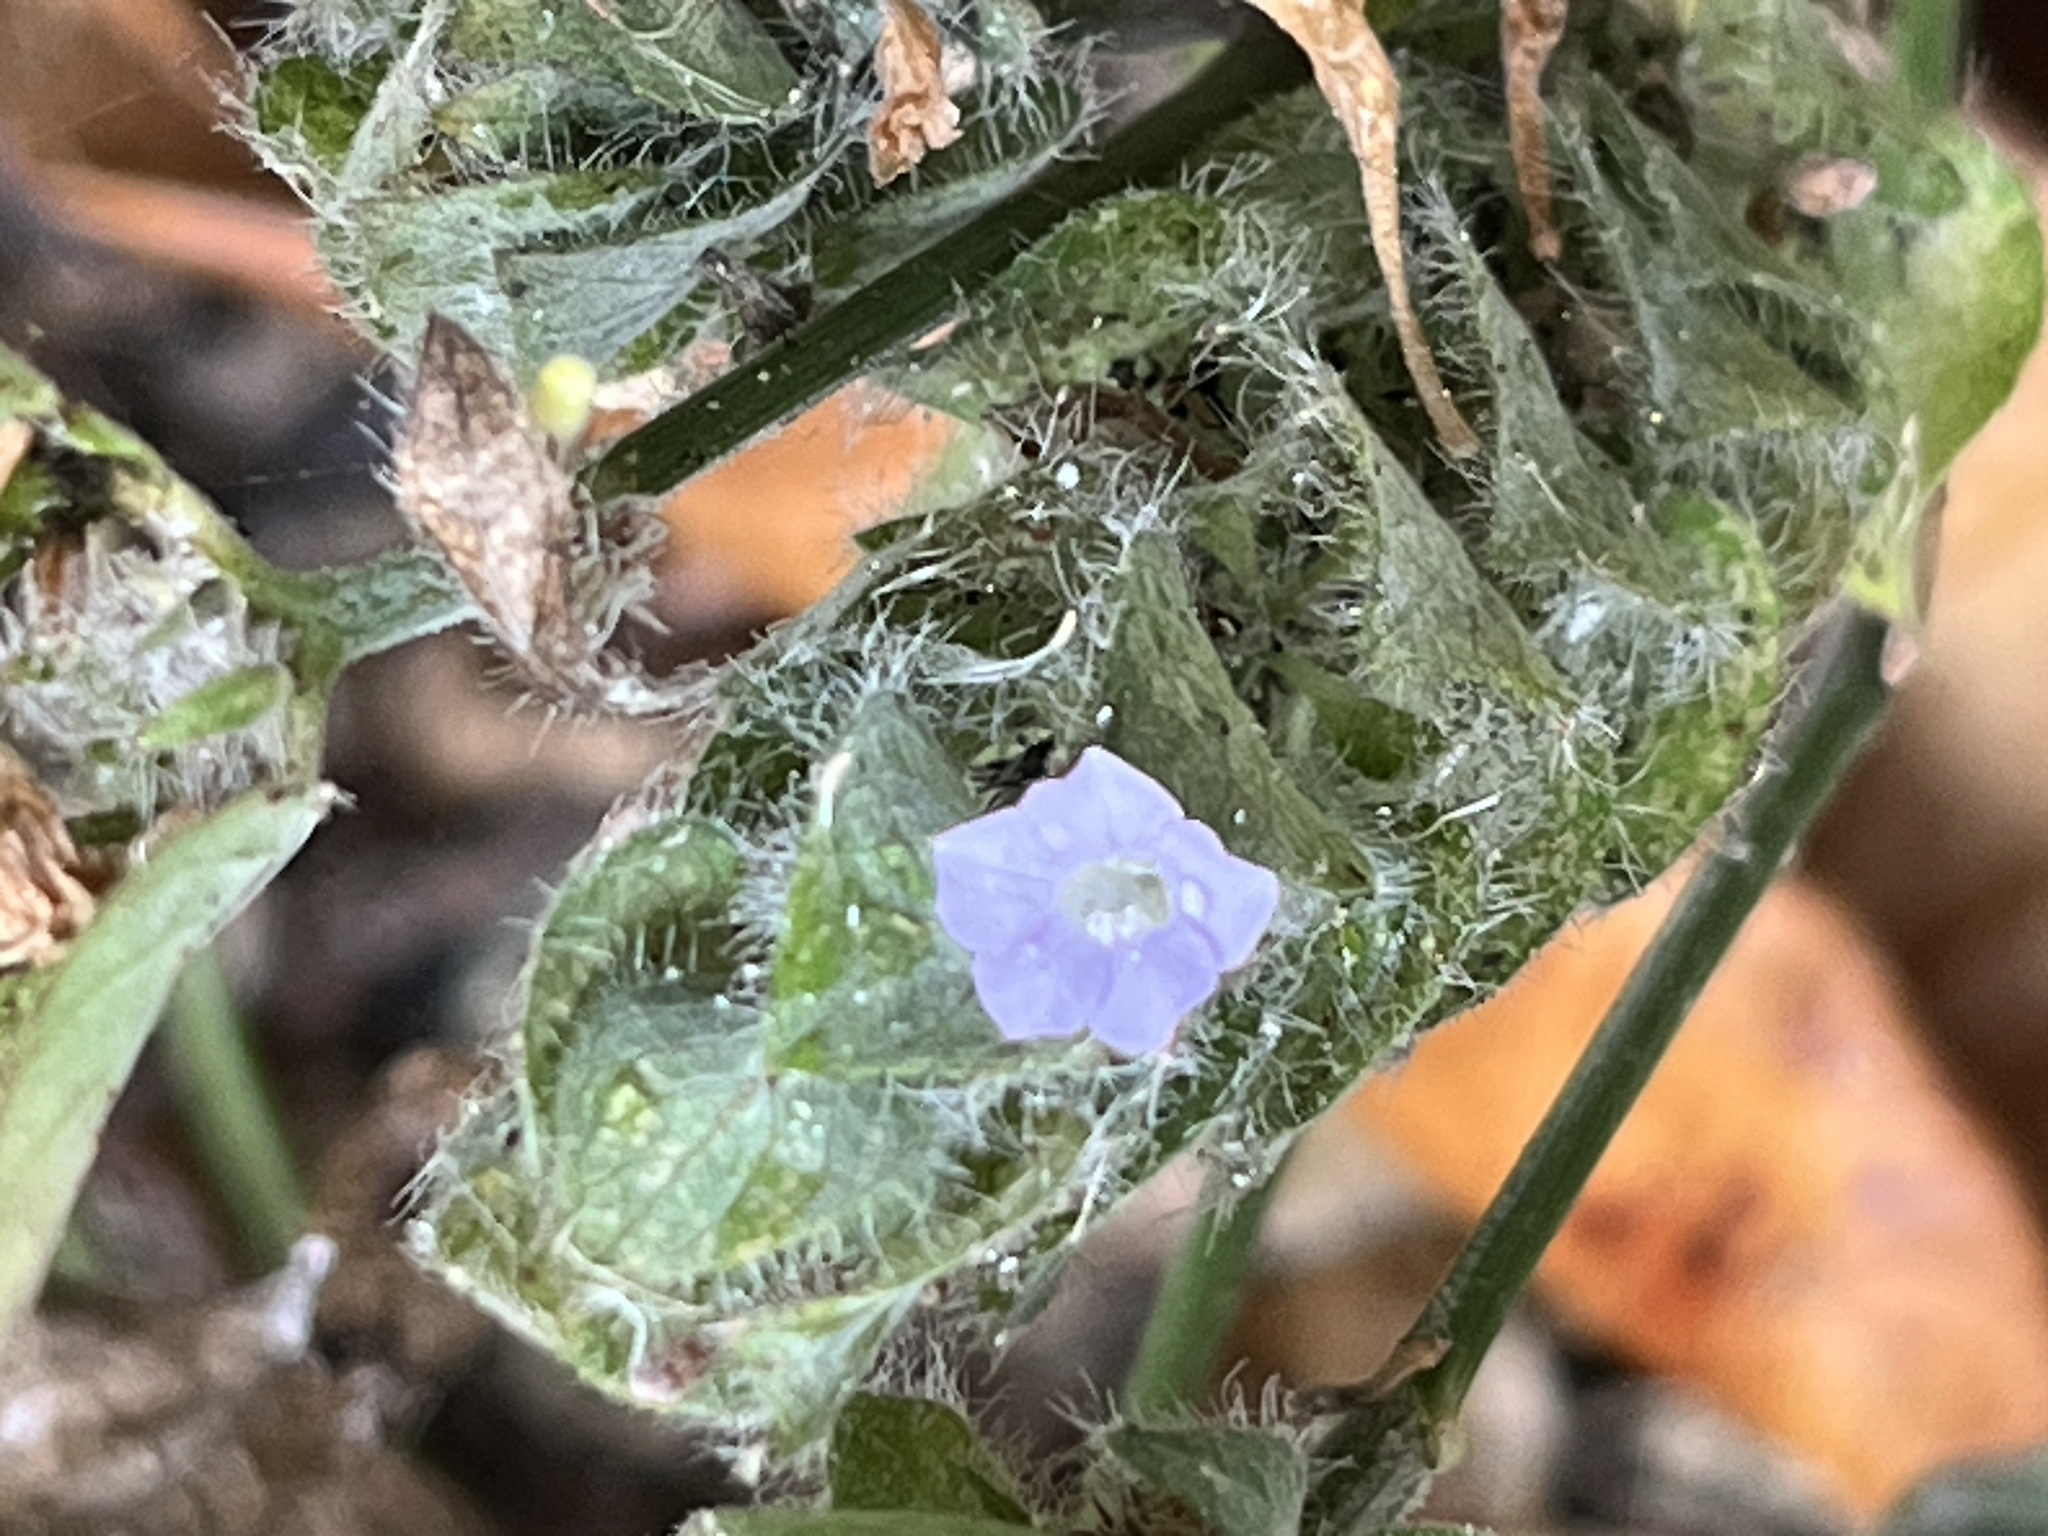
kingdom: Plantae
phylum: Tracheophyta
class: Magnoliopsida
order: Lamiales
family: Acanthaceae
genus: Ruellia
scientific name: Ruellia blechum
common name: Browne's blechum
